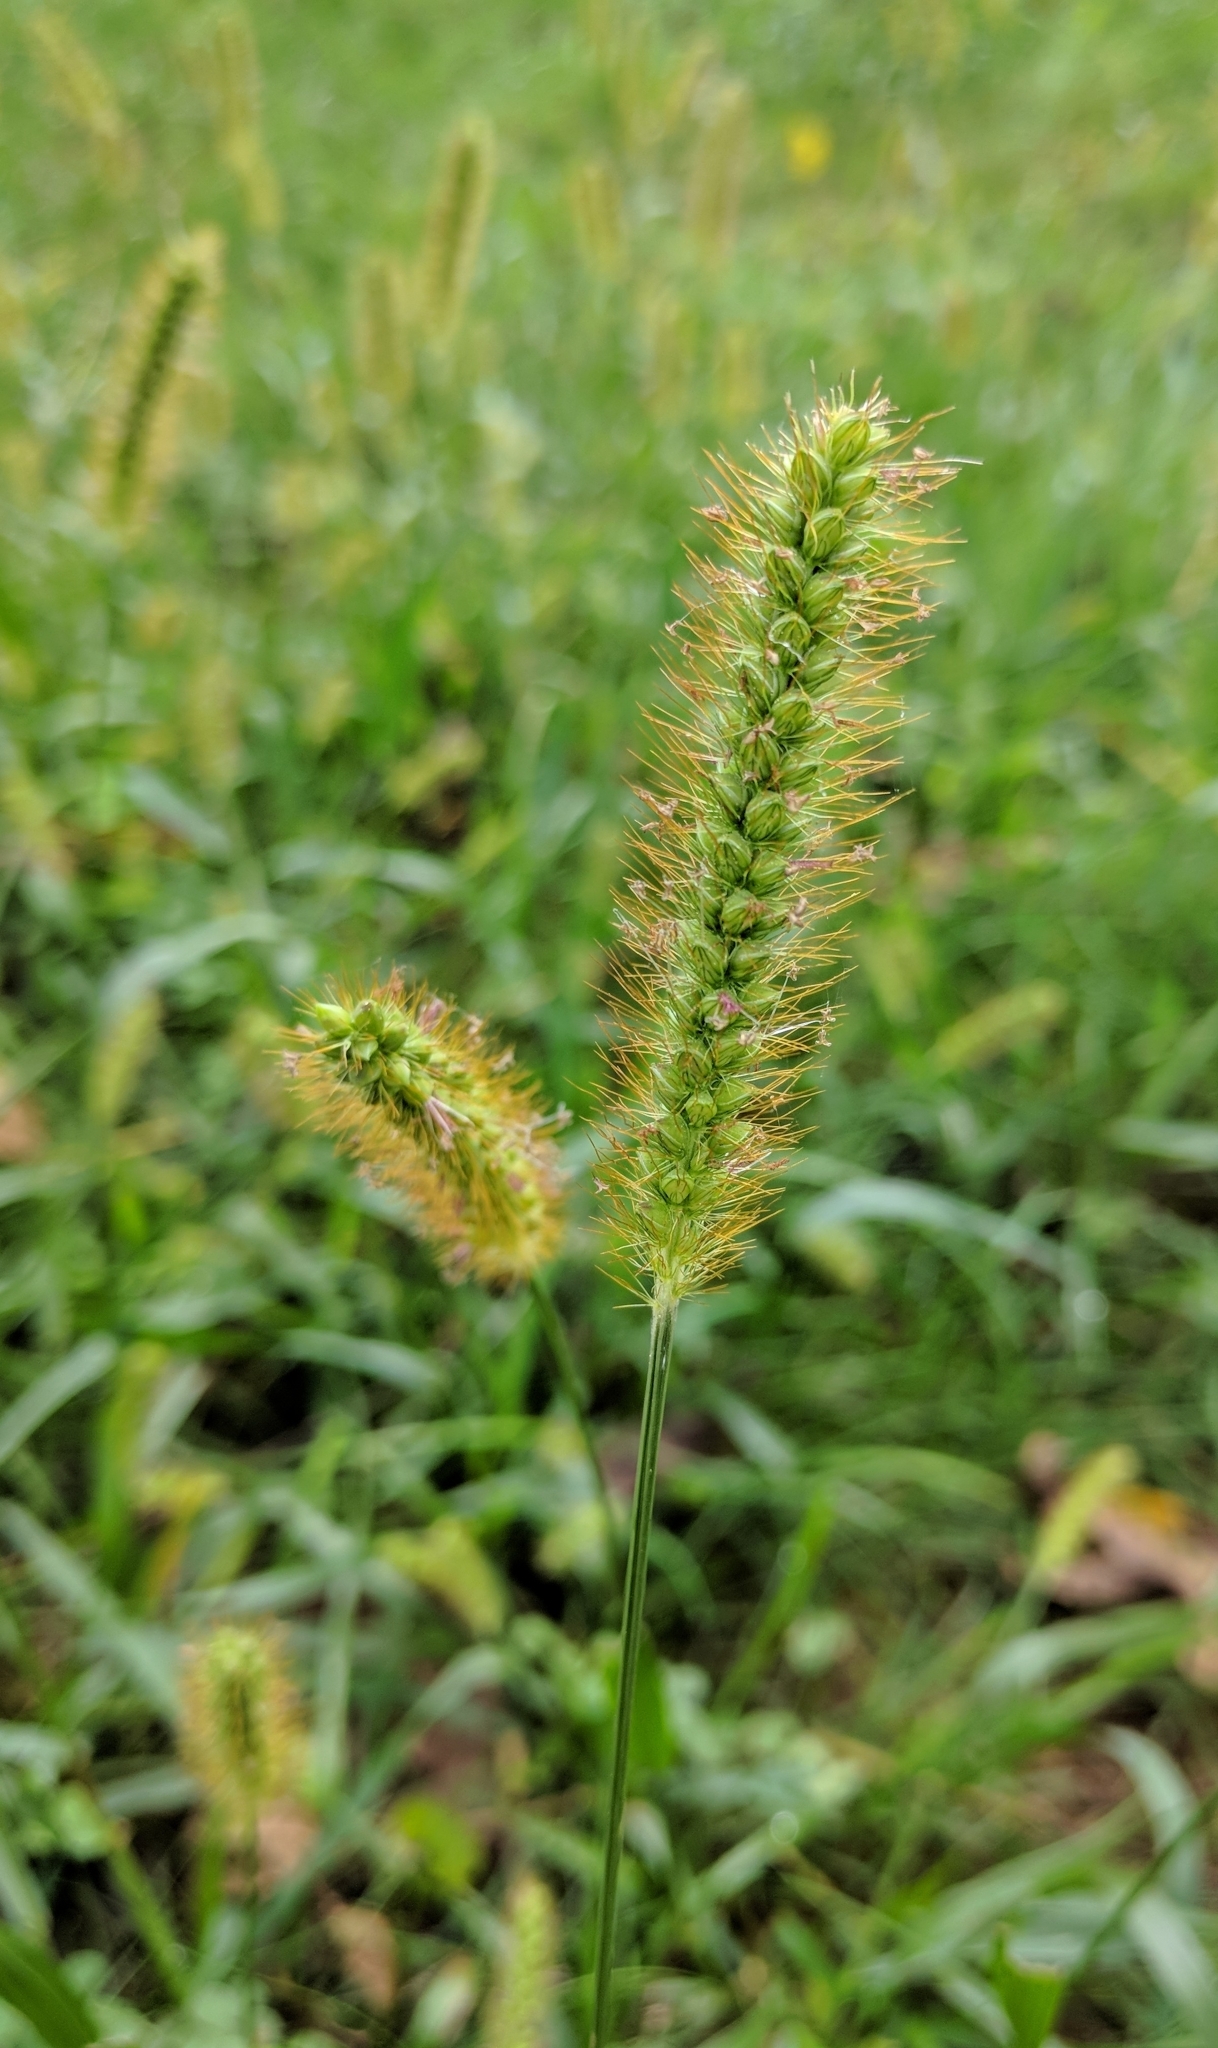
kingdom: Plantae
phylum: Tracheophyta
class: Liliopsida
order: Poales
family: Poaceae
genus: Setaria
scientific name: Setaria pumila
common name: Yellow bristle-grass
